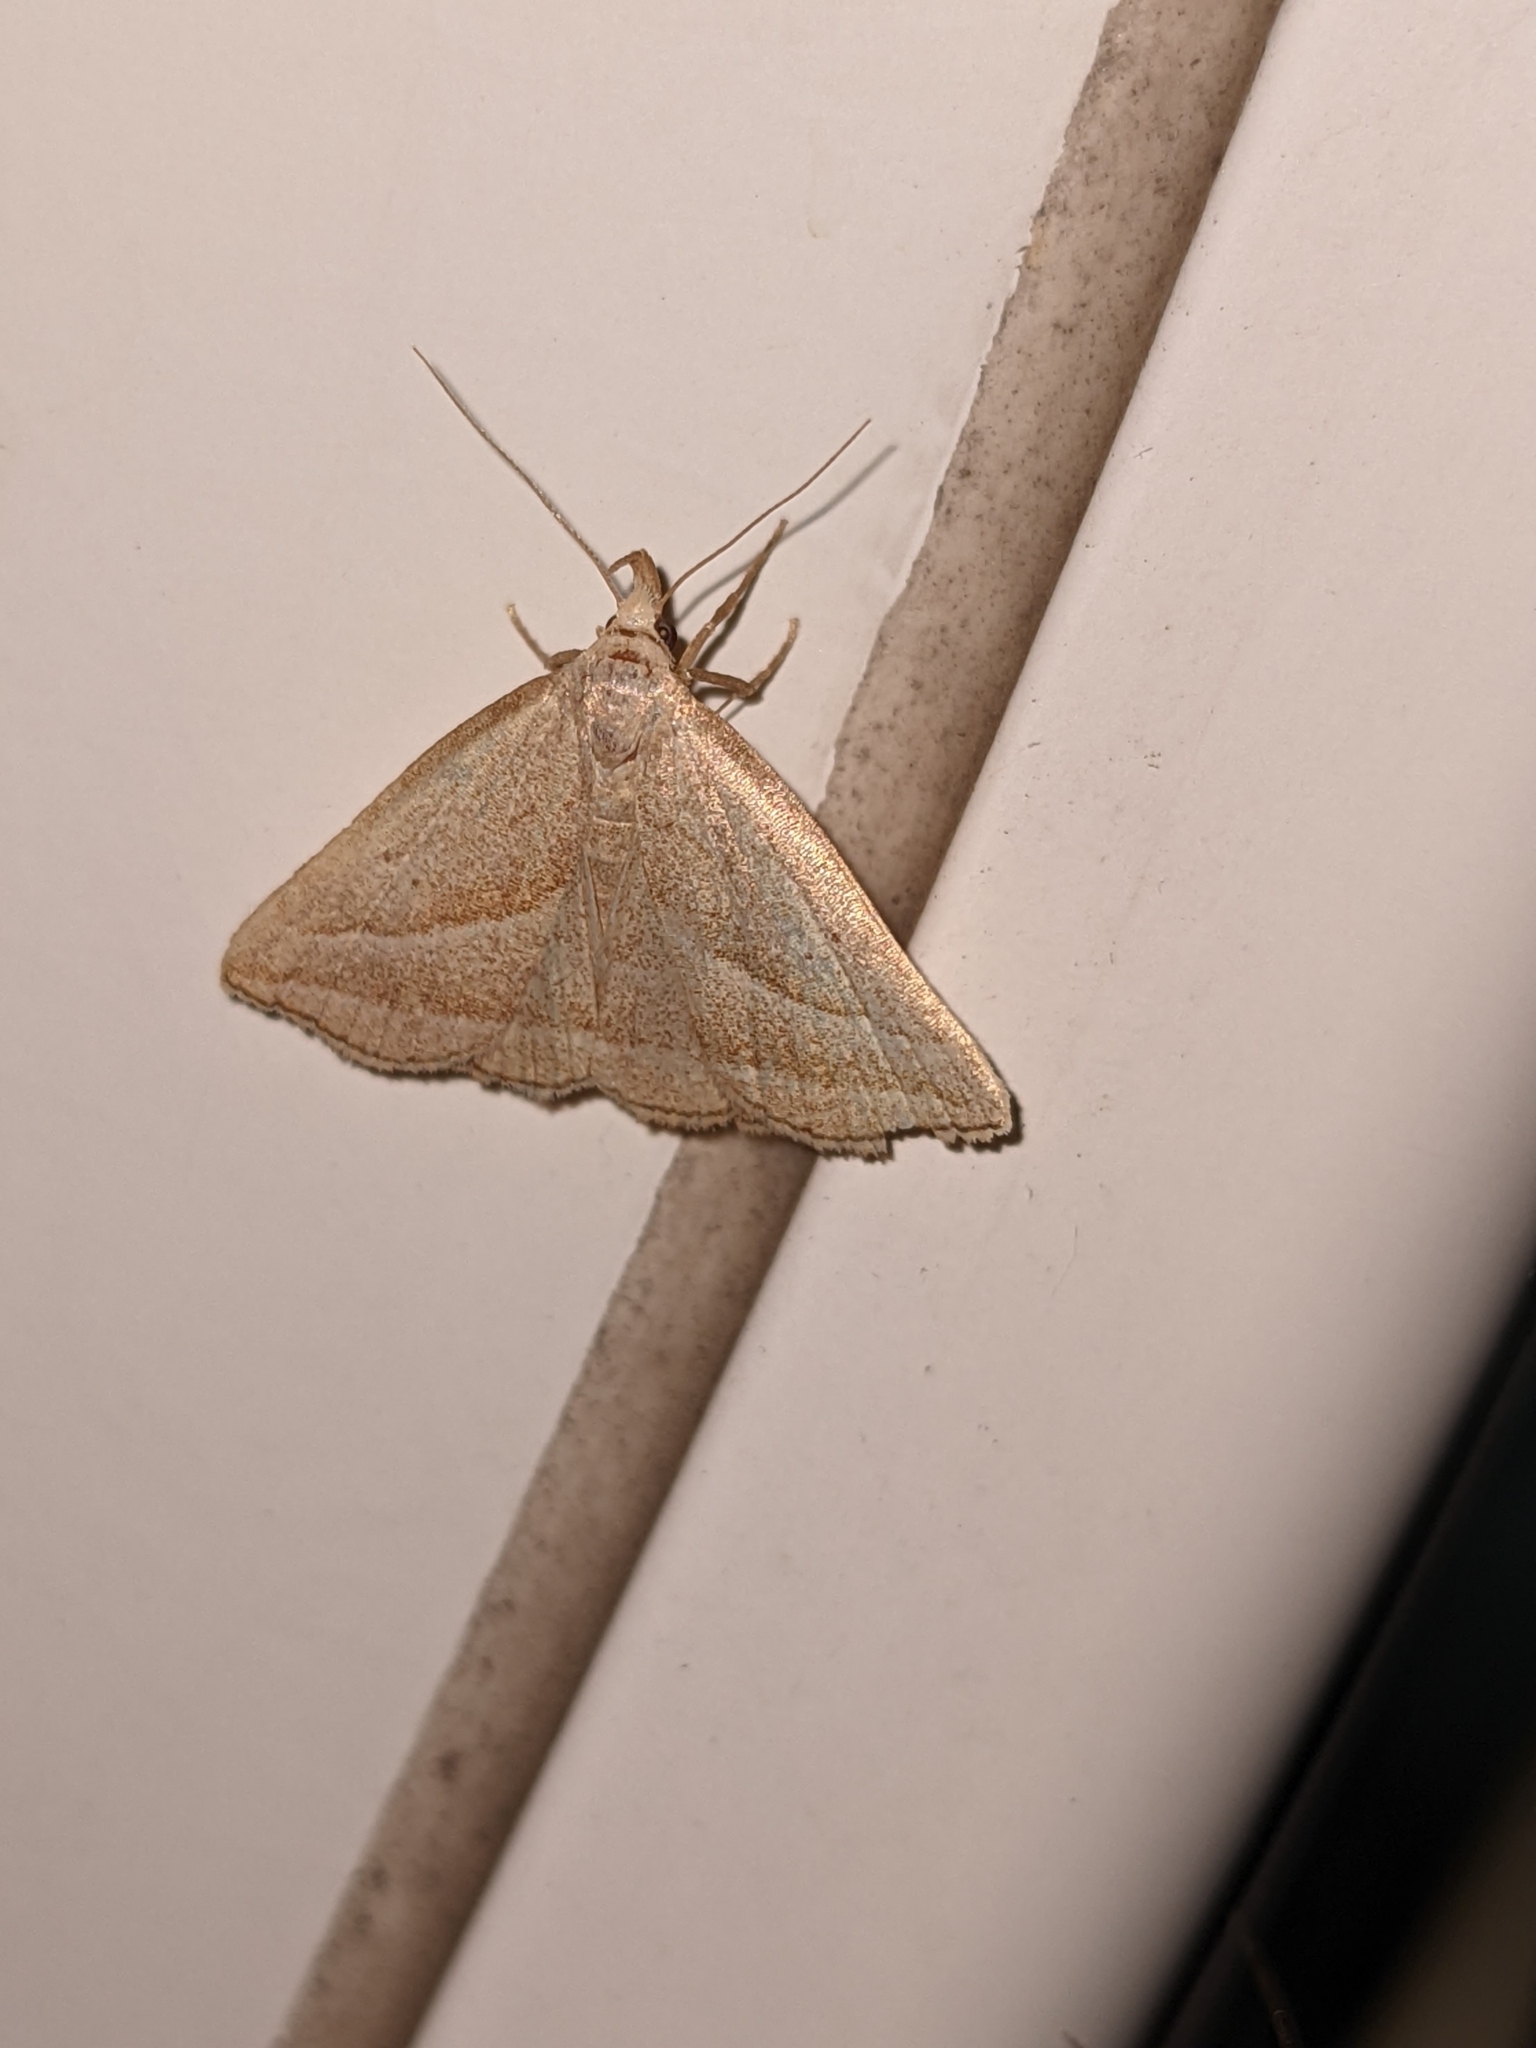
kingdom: Animalia
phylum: Arthropoda
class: Insecta
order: Lepidoptera
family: Erebidae
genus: Macrochilo
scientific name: Macrochilo absorptalis
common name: Slant-lined owlet
